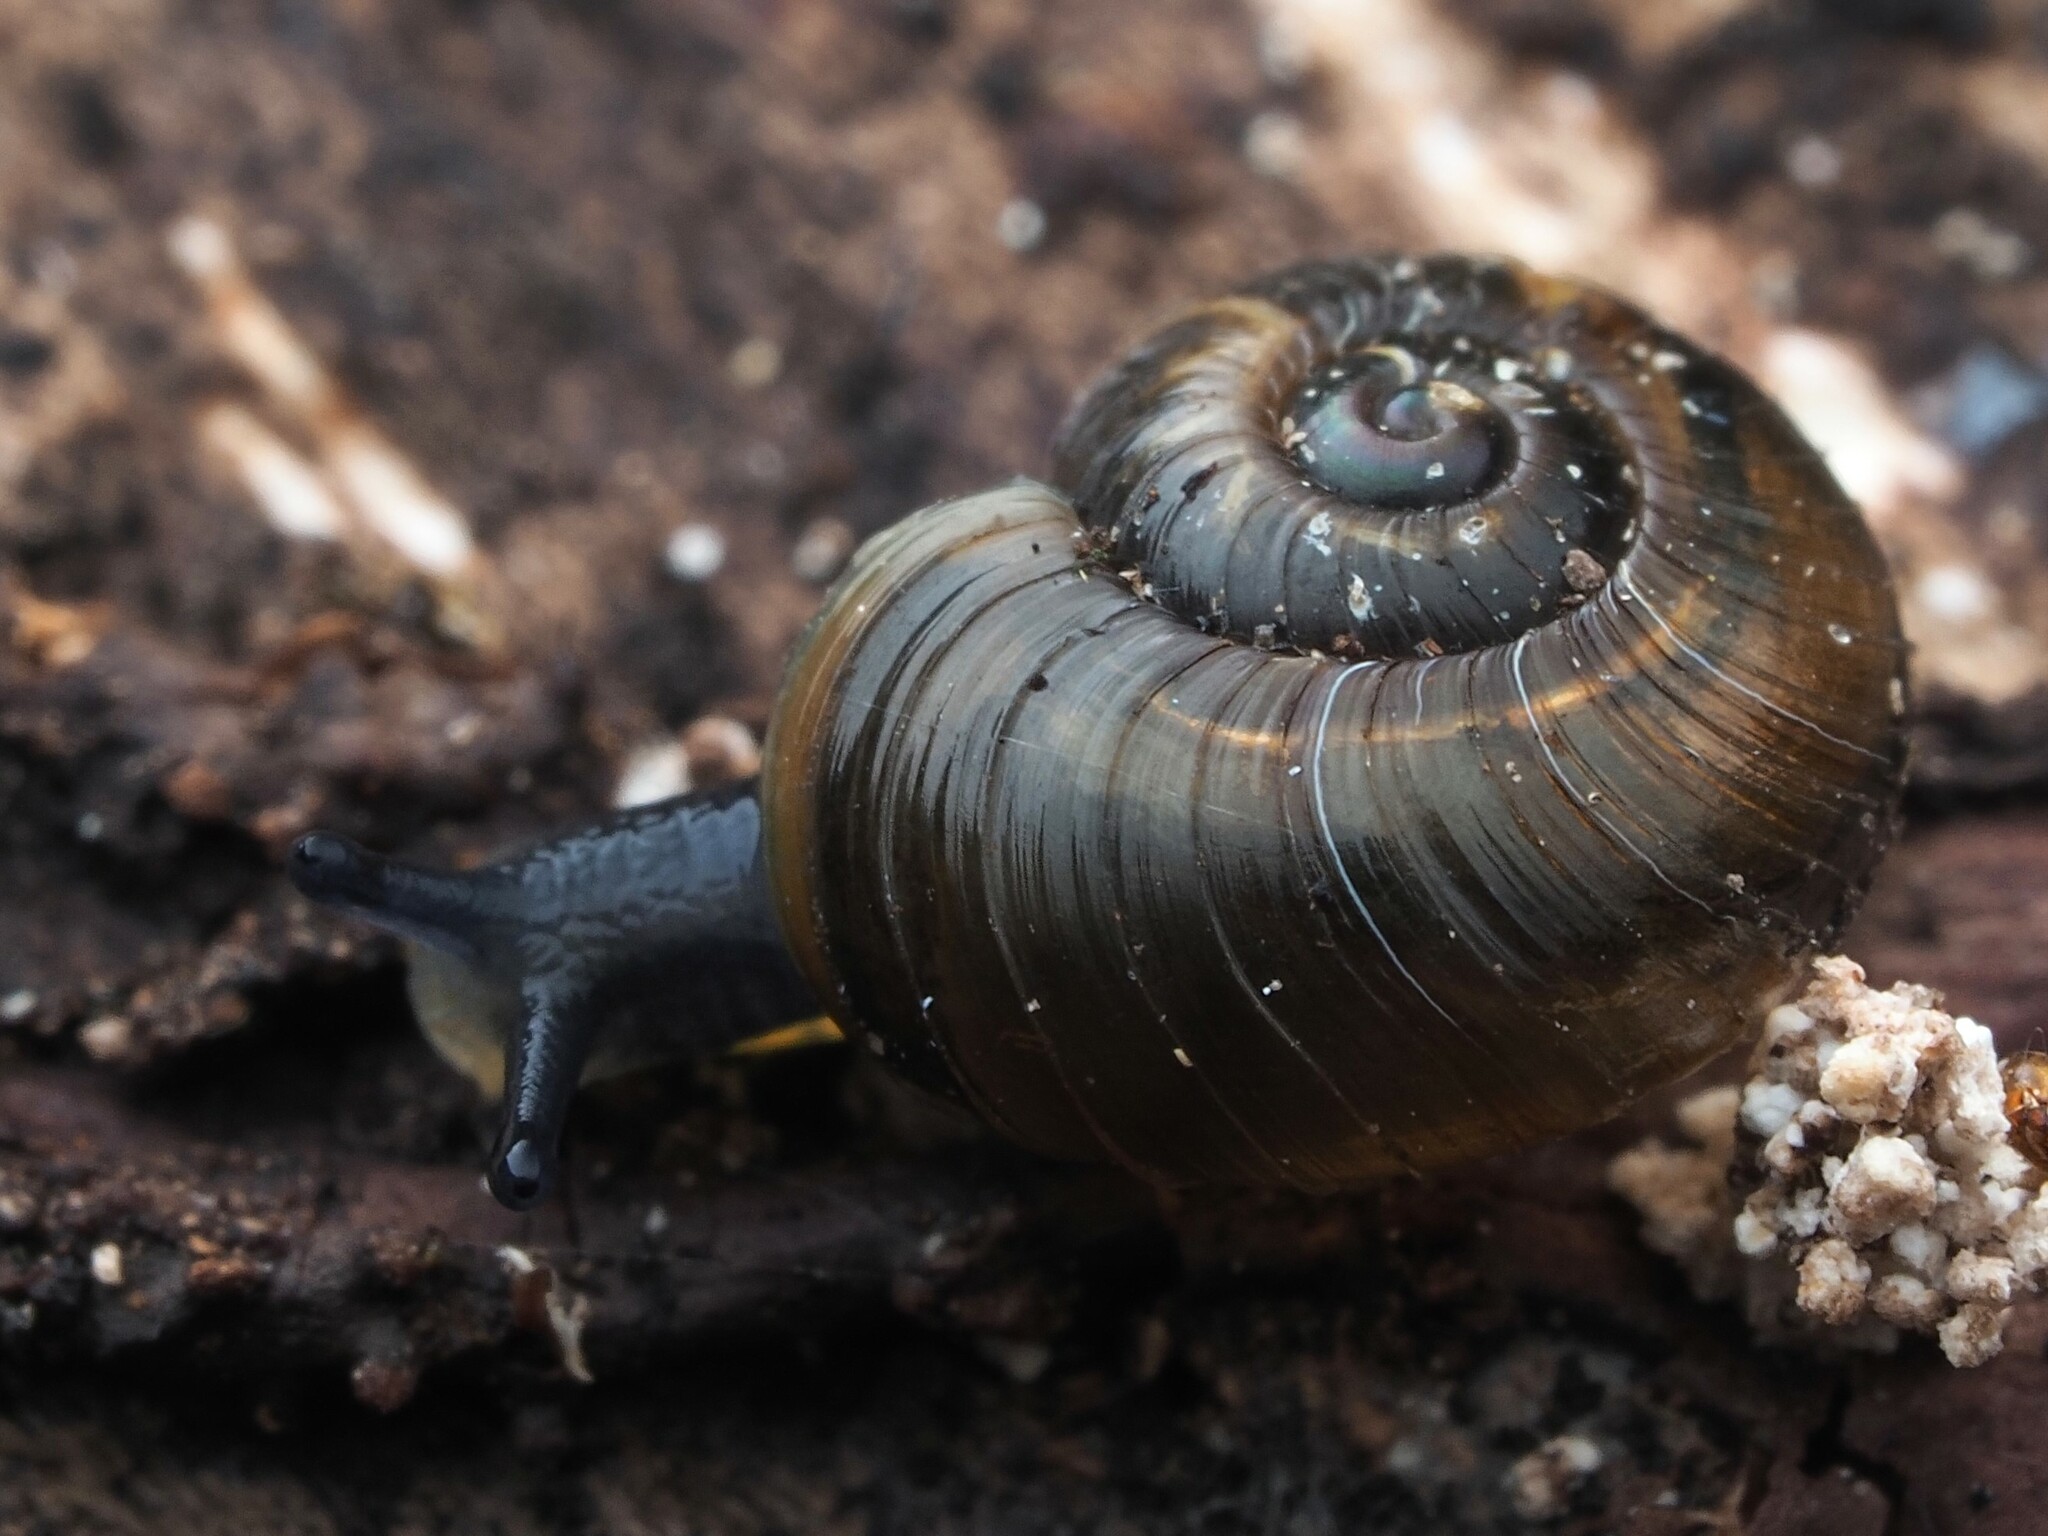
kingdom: Animalia
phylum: Mollusca
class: Gastropoda
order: Stylommatophora
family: Charopidae
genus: Flammulina
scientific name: Flammulina perdita
